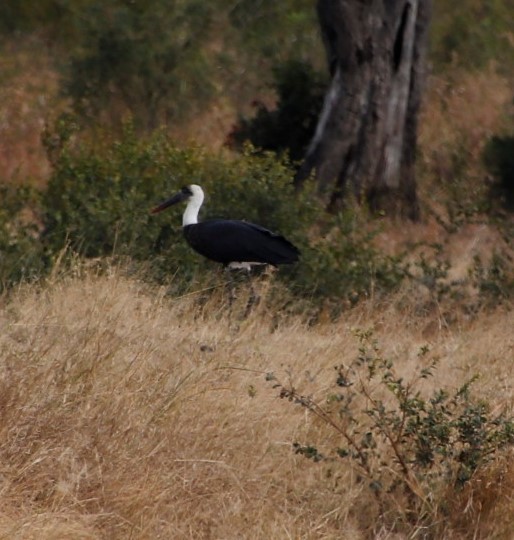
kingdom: Animalia
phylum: Chordata
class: Aves
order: Ciconiiformes
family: Ciconiidae
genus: Ciconia
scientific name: Ciconia microscelis
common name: African woollyneck
